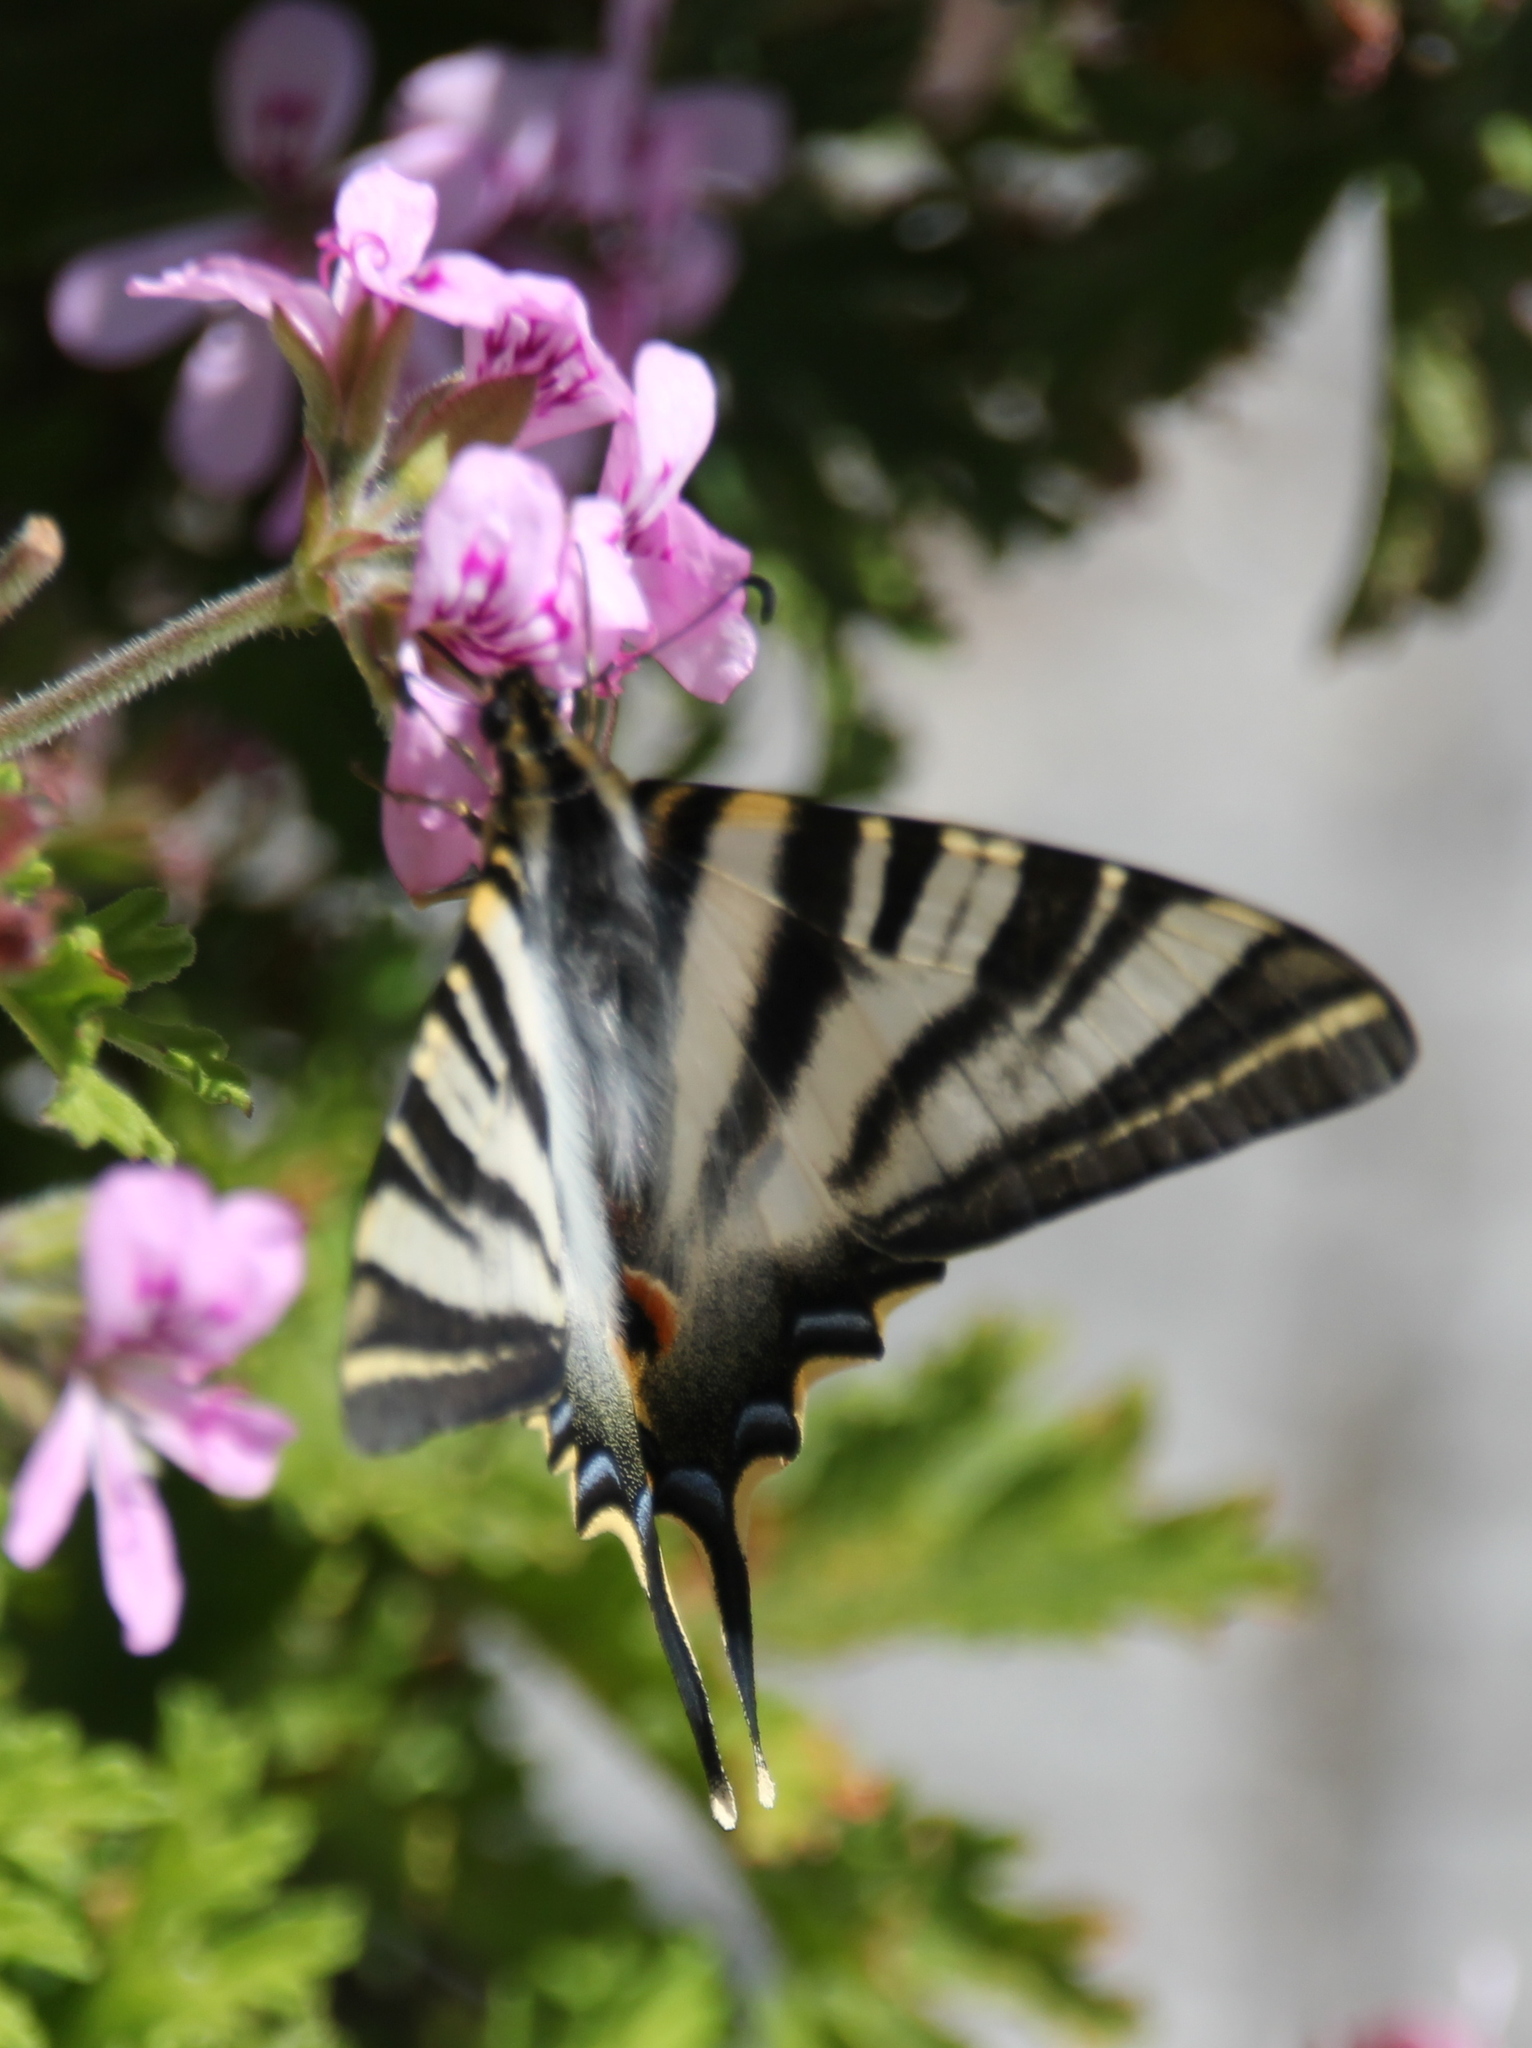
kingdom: Animalia
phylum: Arthropoda
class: Insecta
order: Lepidoptera
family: Papilionidae
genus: Iphiclides
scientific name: Iphiclides feisthamelii
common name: Iberian scarce swallowtail
